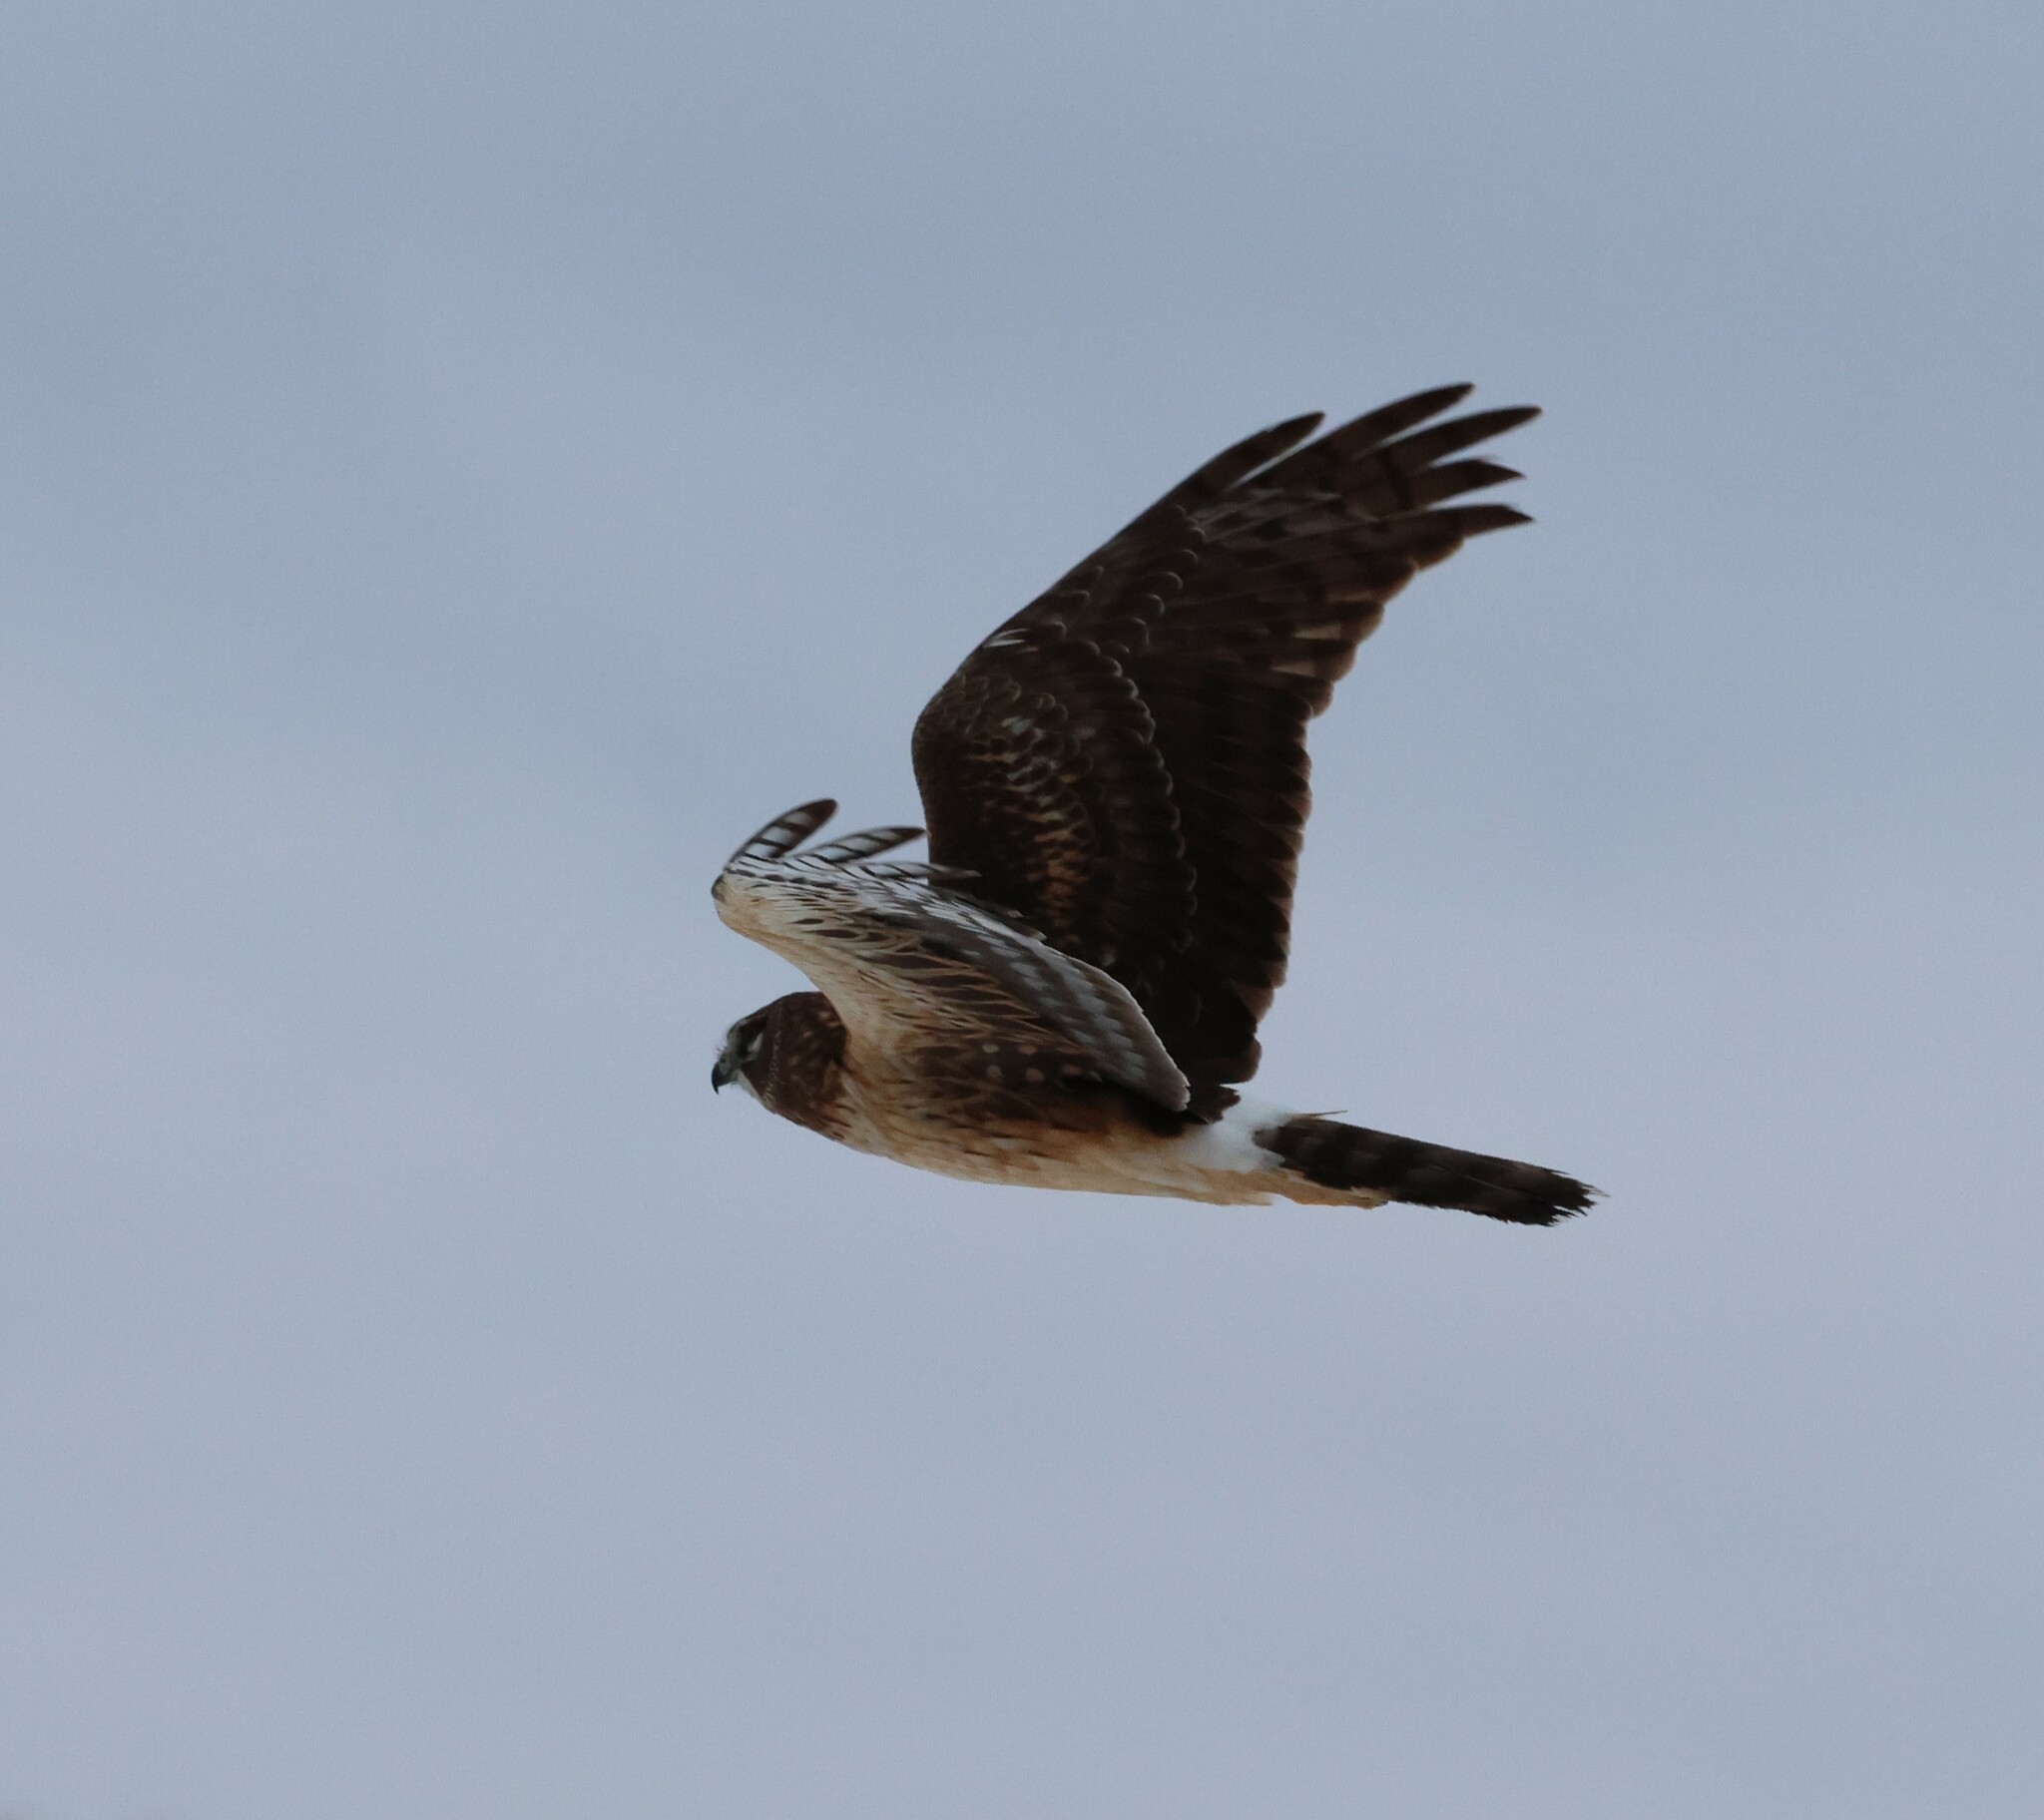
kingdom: Animalia
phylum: Chordata
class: Aves
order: Accipitriformes
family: Accipitridae
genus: Circus
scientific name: Circus cyaneus
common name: Hen harrier
